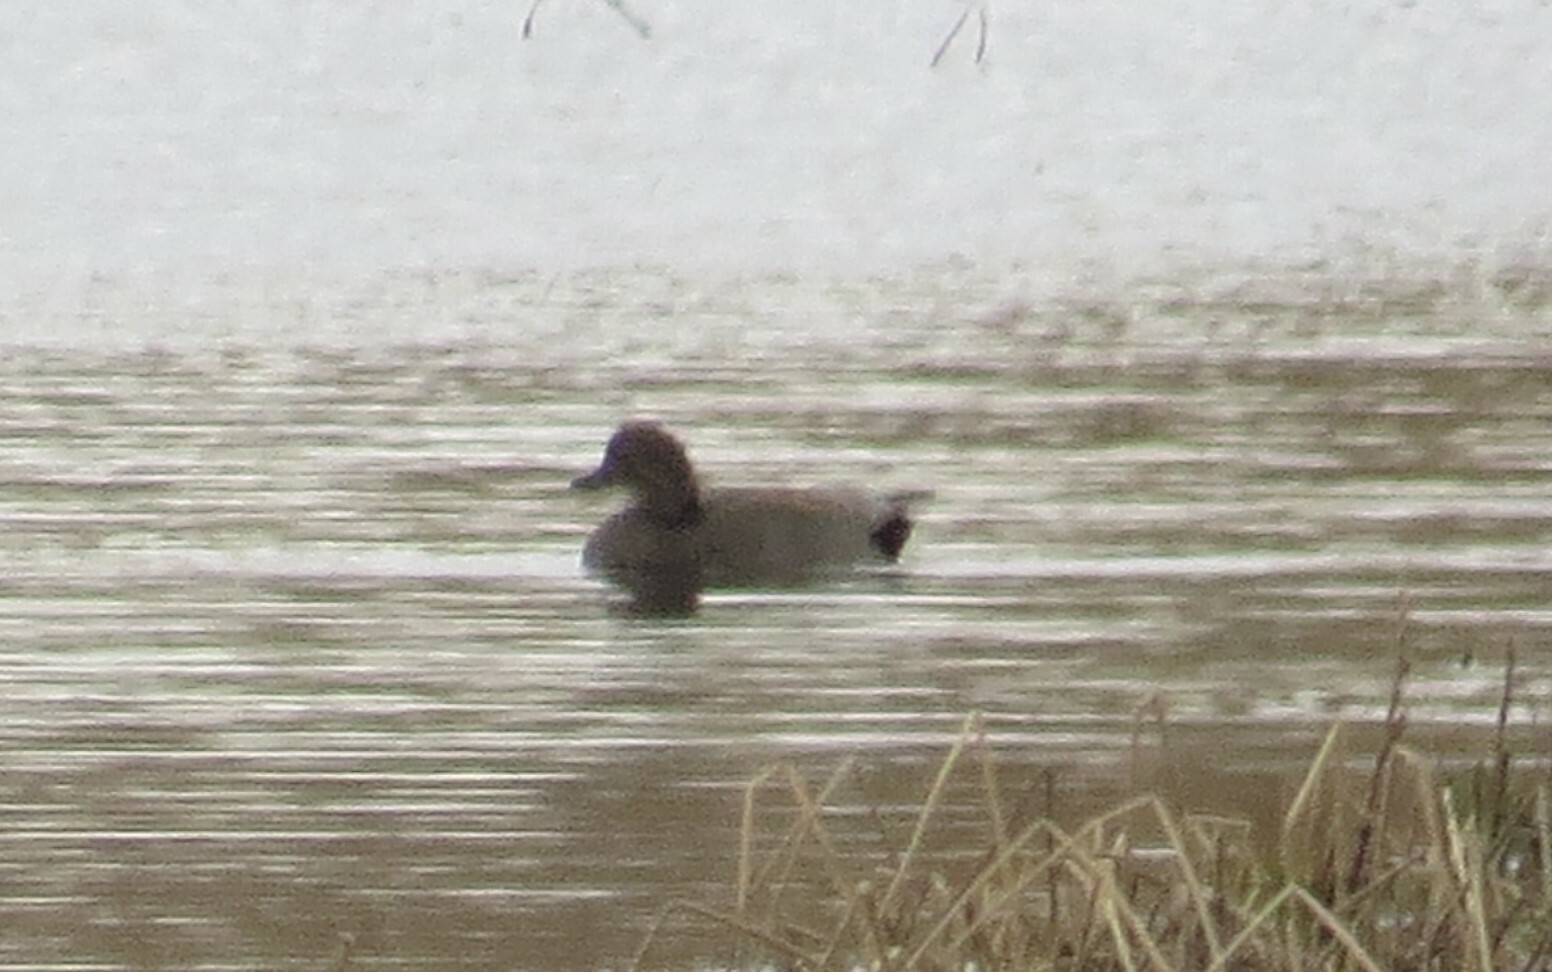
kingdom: Animalia
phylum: Chordata
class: Aves
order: Anseriformes
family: Anatidae
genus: Mareca
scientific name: Mareca strepera
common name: Gadwall
